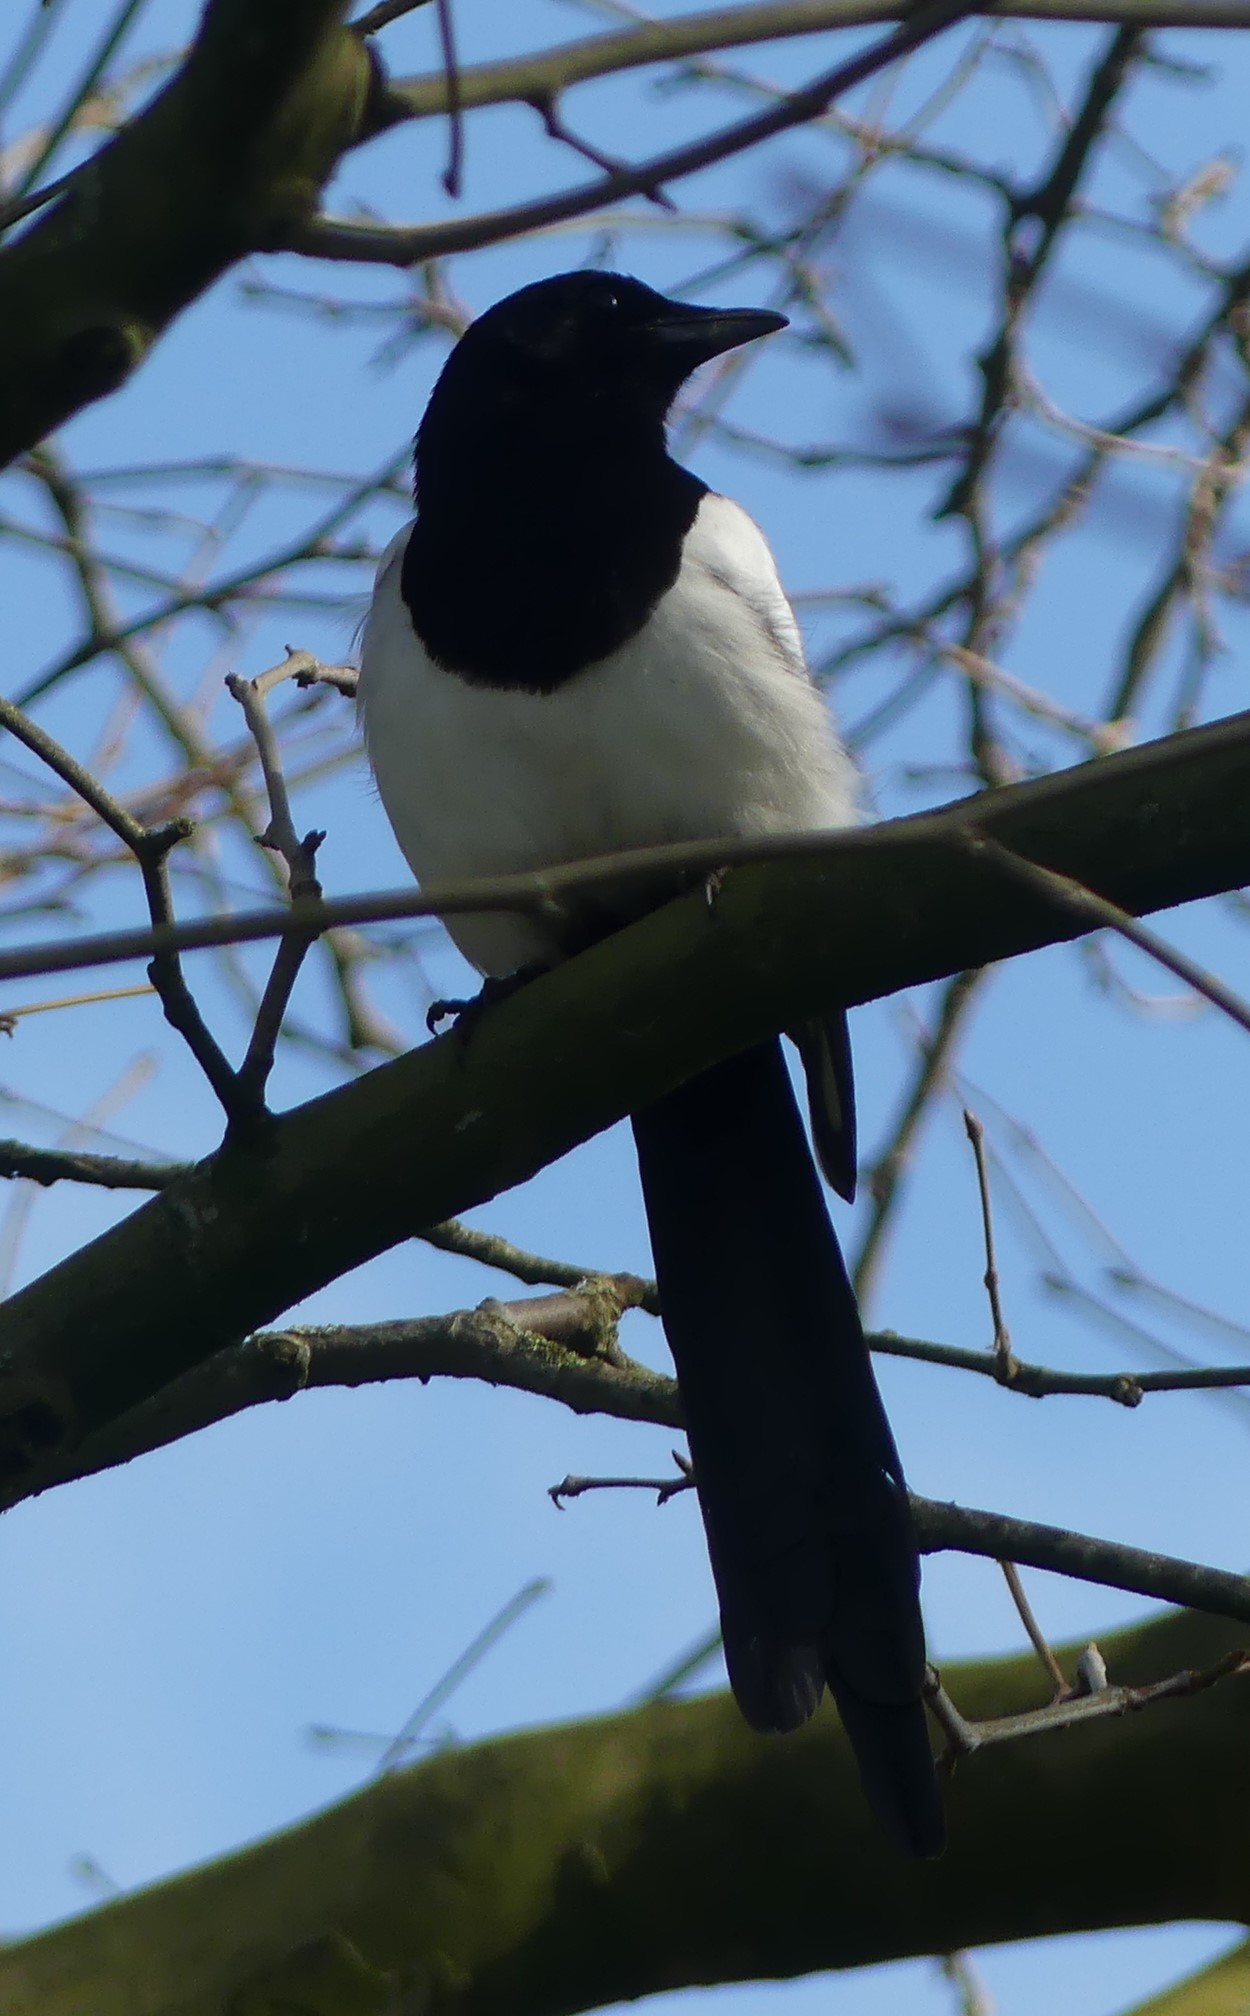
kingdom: Animalia
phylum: Chordata
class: Aves
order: Passeriformes
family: Corvidae
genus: Pica
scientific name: Pica pica
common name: Eurasian magpie
